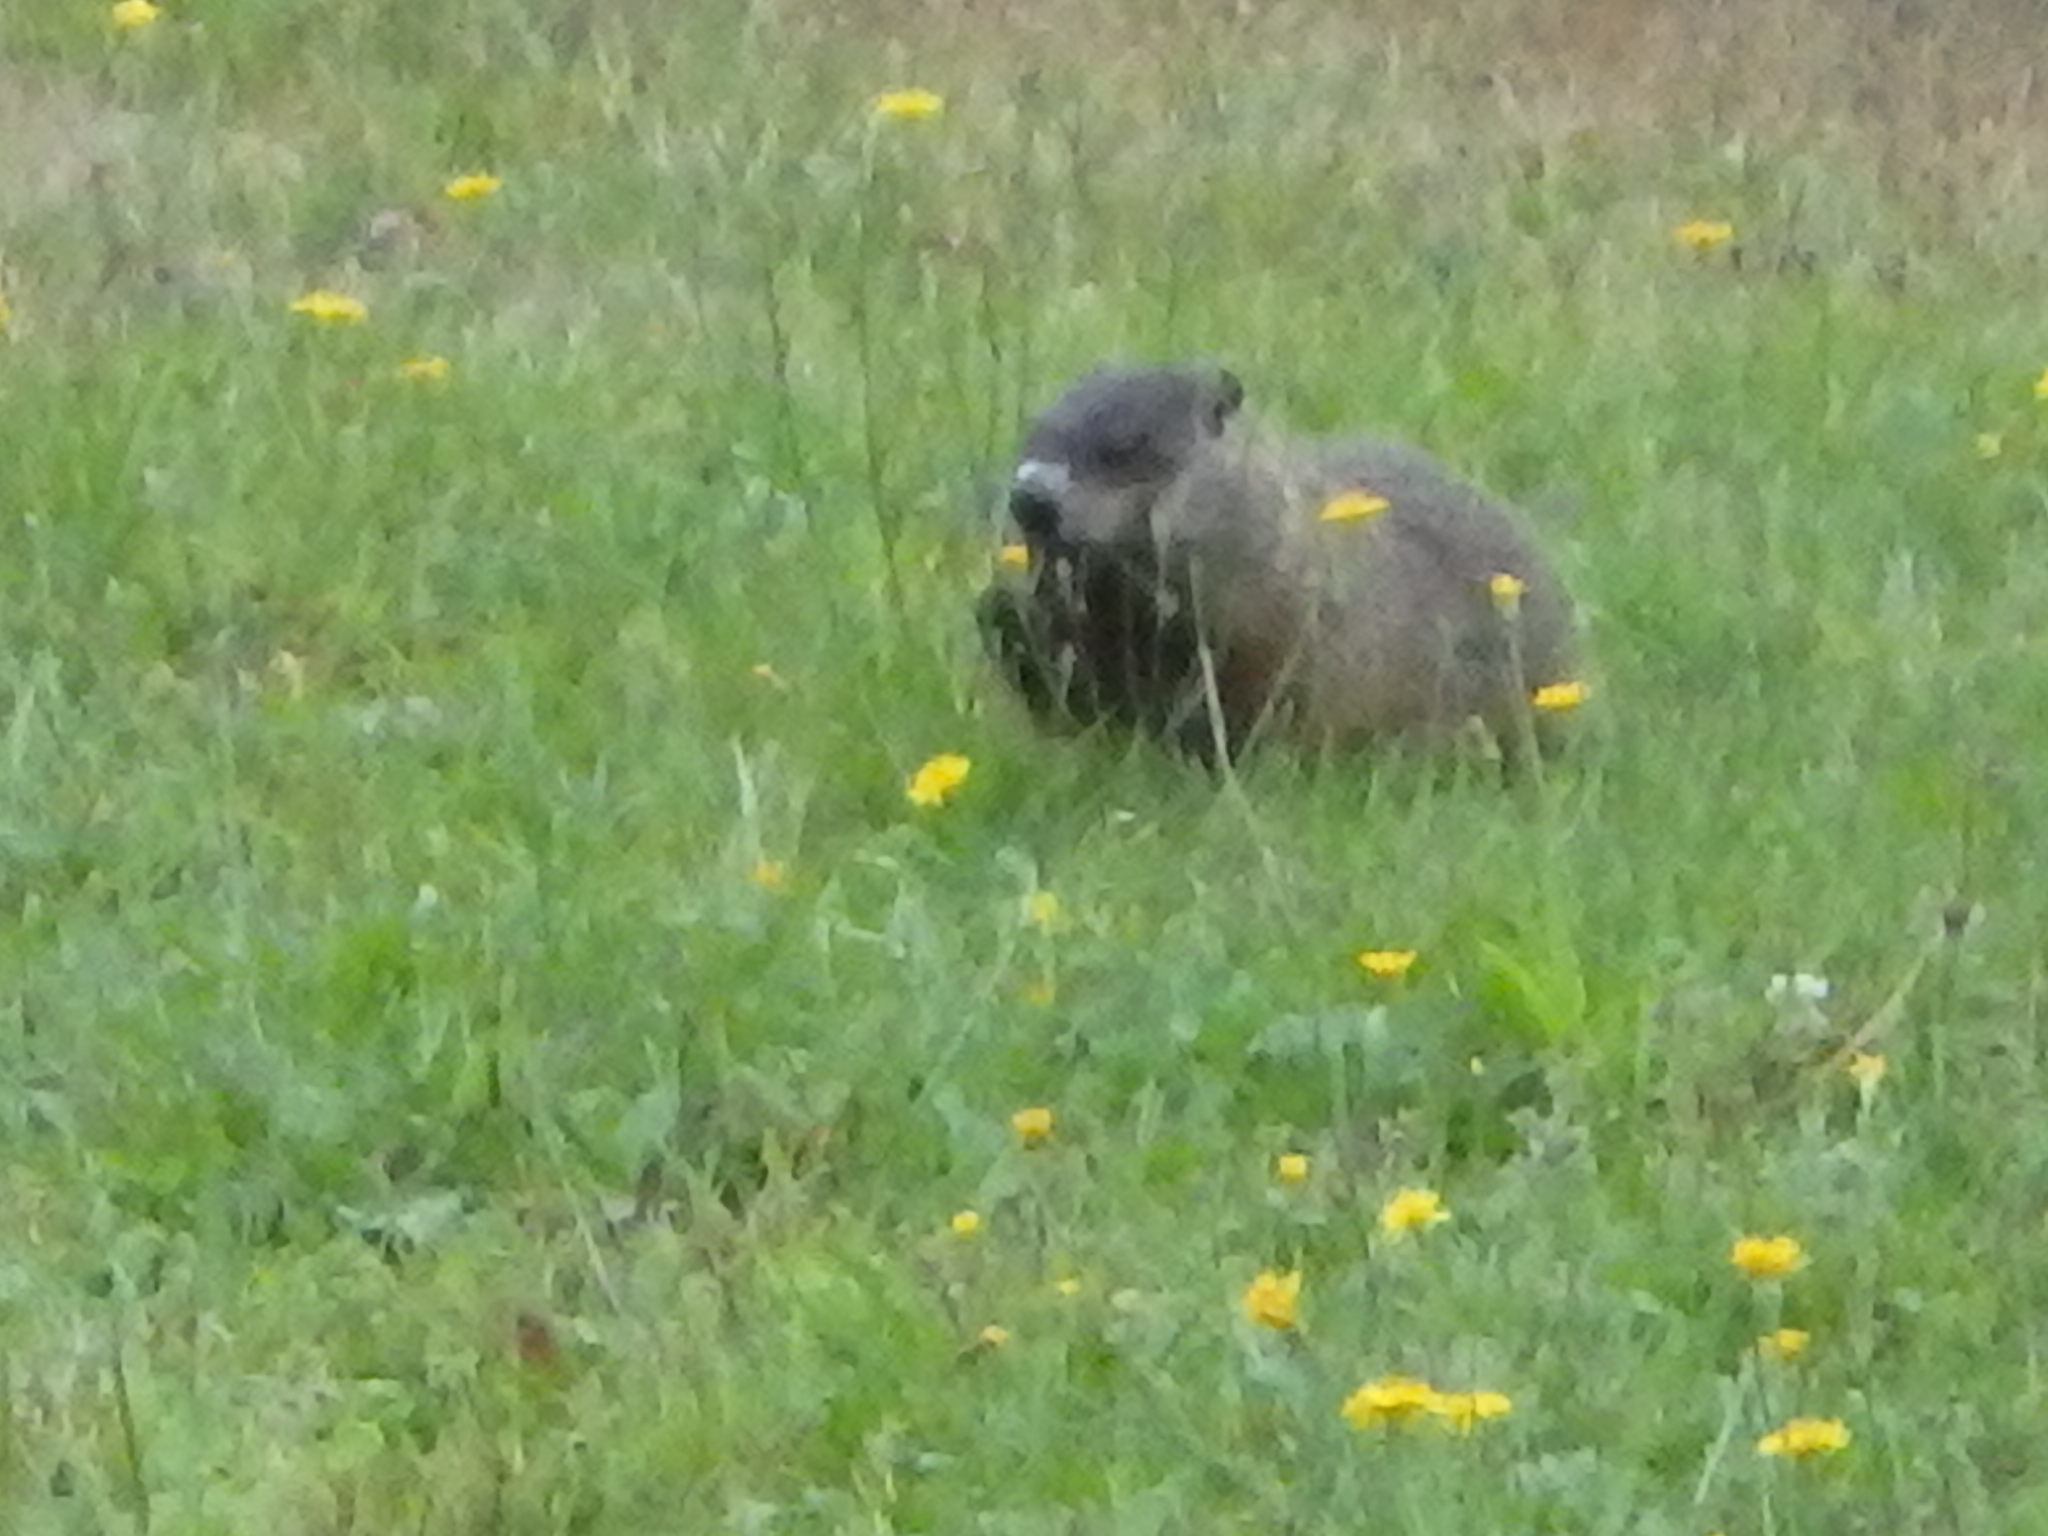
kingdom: Animalia
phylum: Chordata
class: Mammalia
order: Rodentia
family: Sciuridae
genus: Marmota
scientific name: Marmota monax
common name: Groundhog
